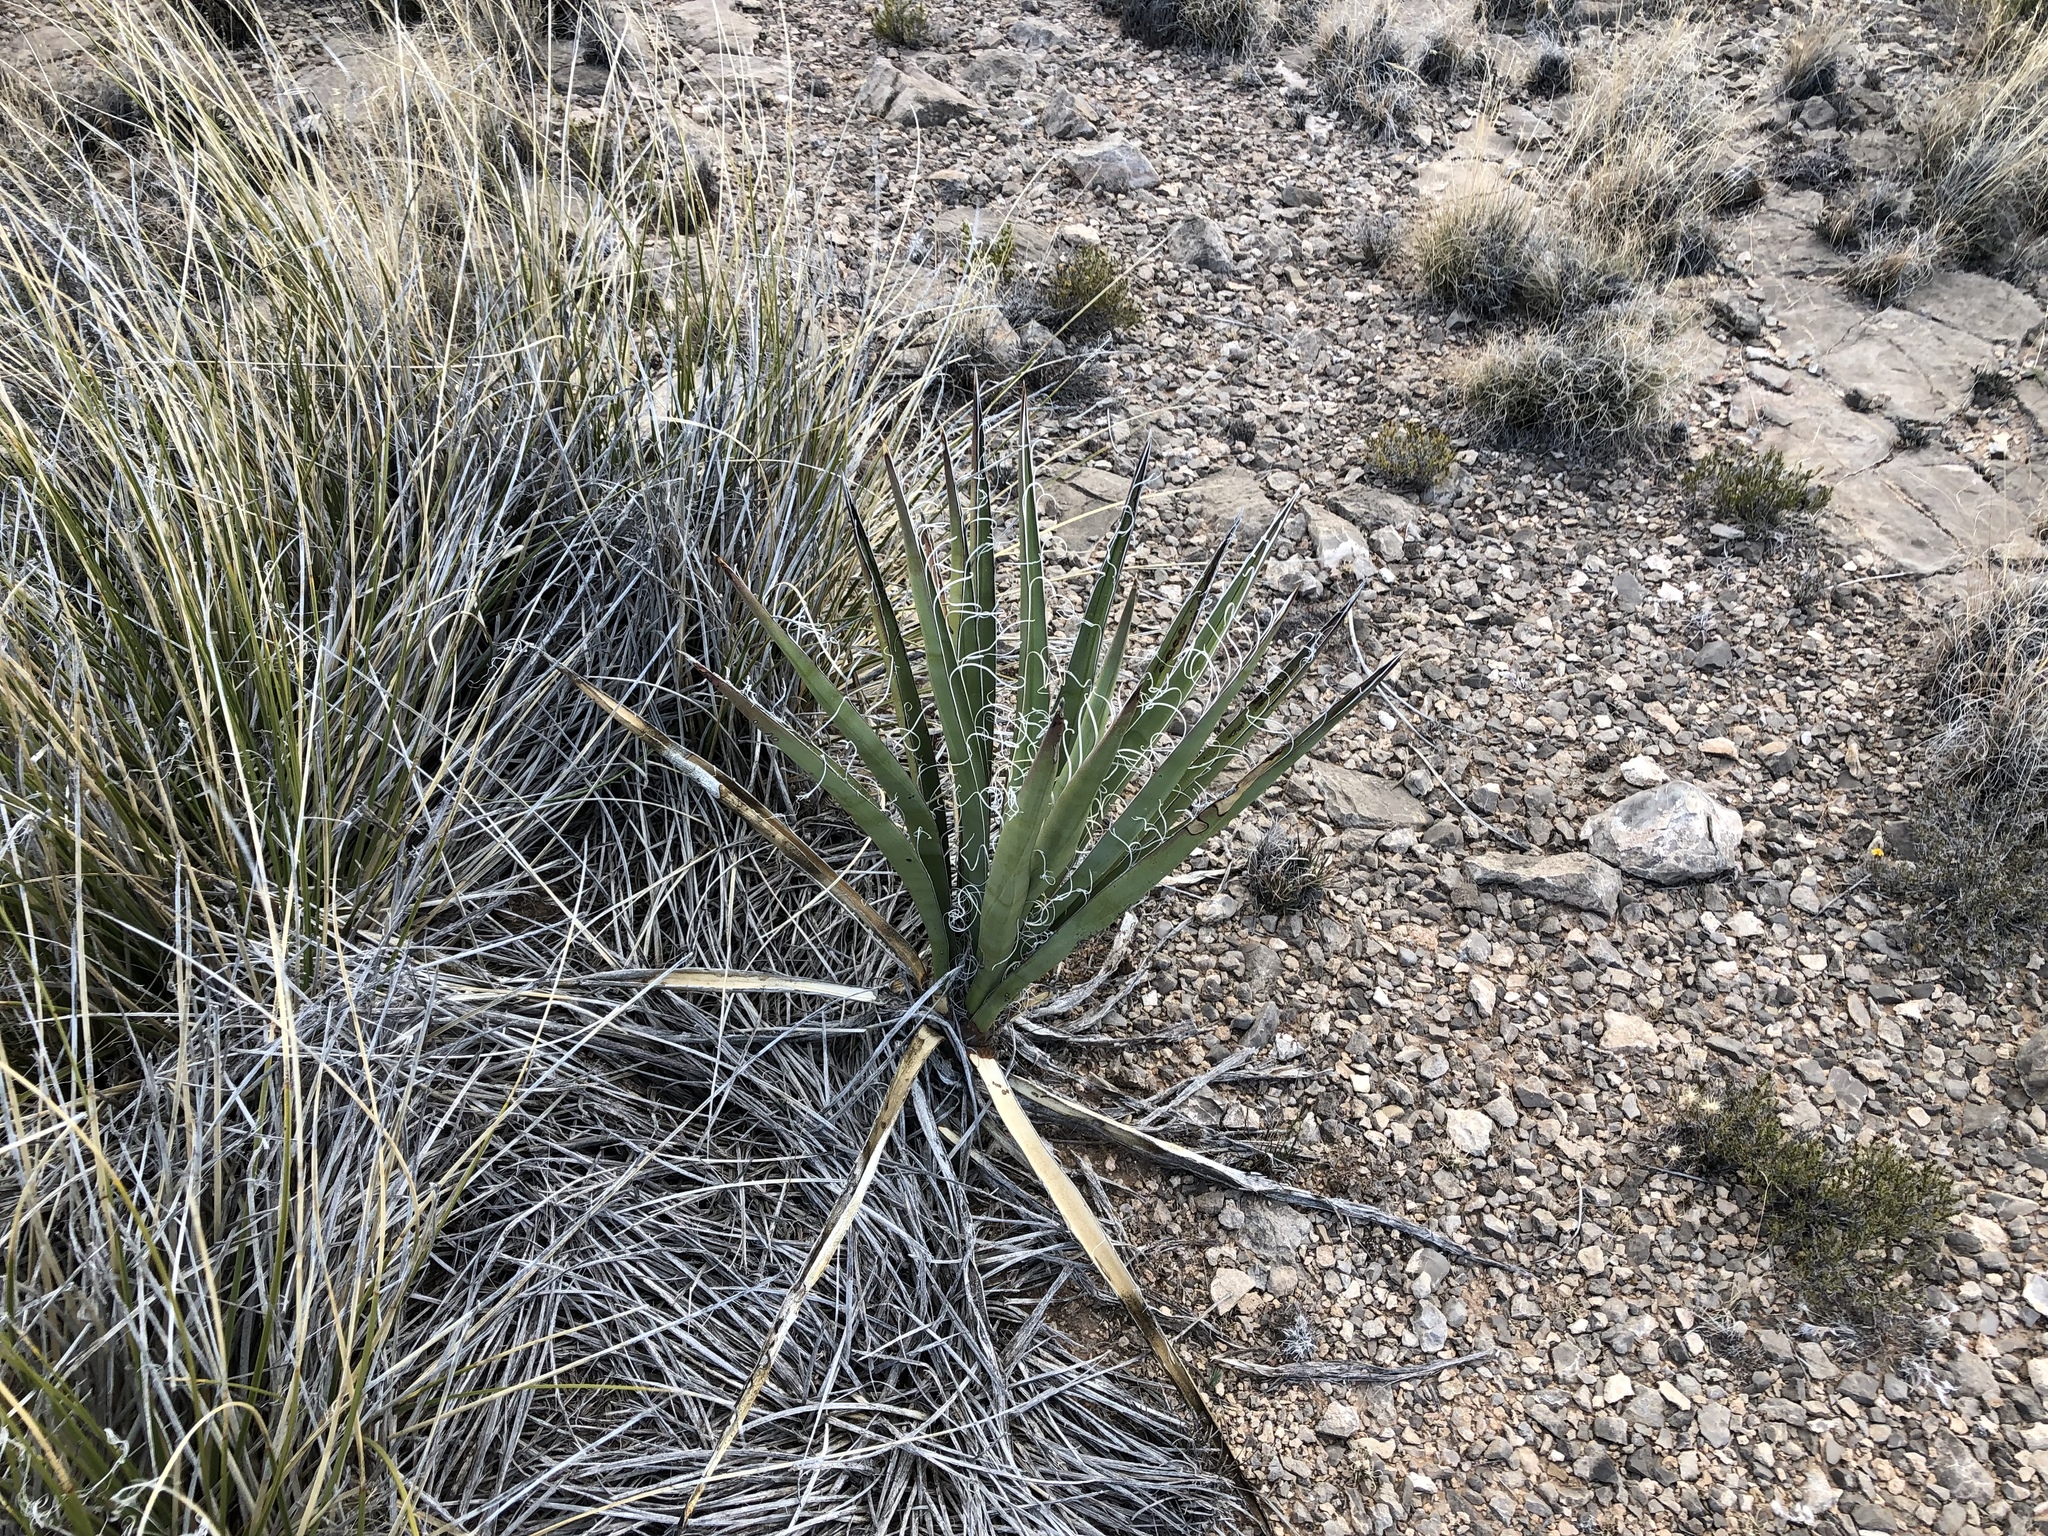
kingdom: Plantae
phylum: Tracheophyta
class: Liliopsida
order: Asparagales
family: Asparagaceae
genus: Yucca
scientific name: Yucca baccata
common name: Banana yucca
